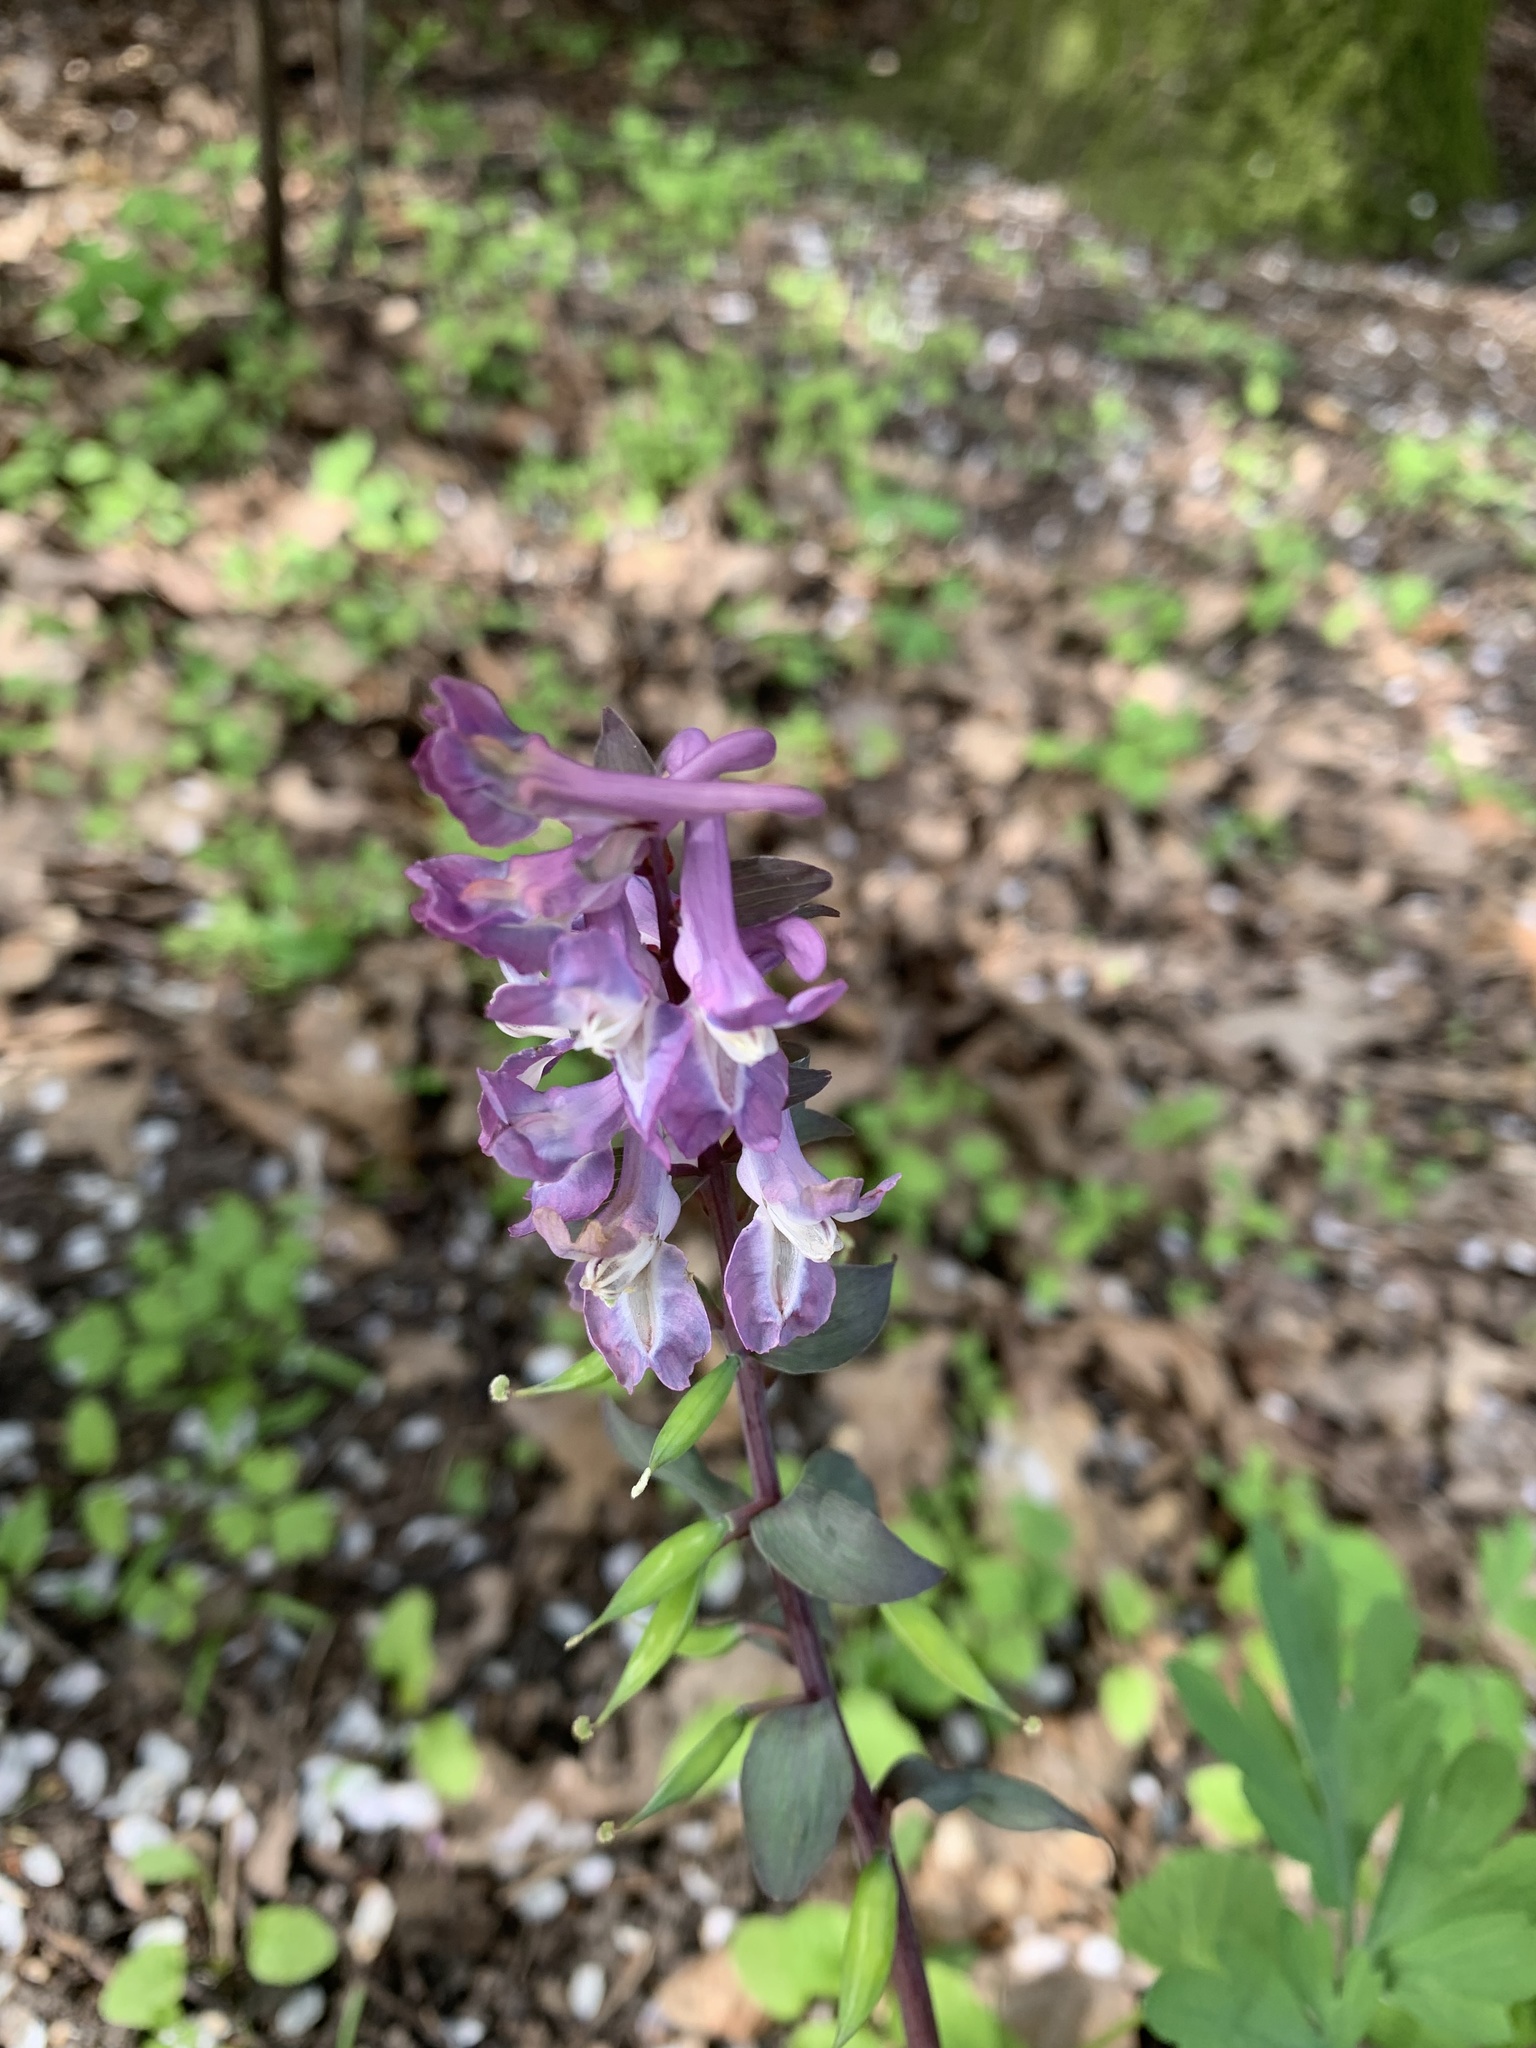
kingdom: Plantae
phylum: Tracheophyta
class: Magnoliopsida
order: Ranunculales
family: Papaveraceae
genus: Corydalis
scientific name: Corydalis cava
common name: Hollowroot
